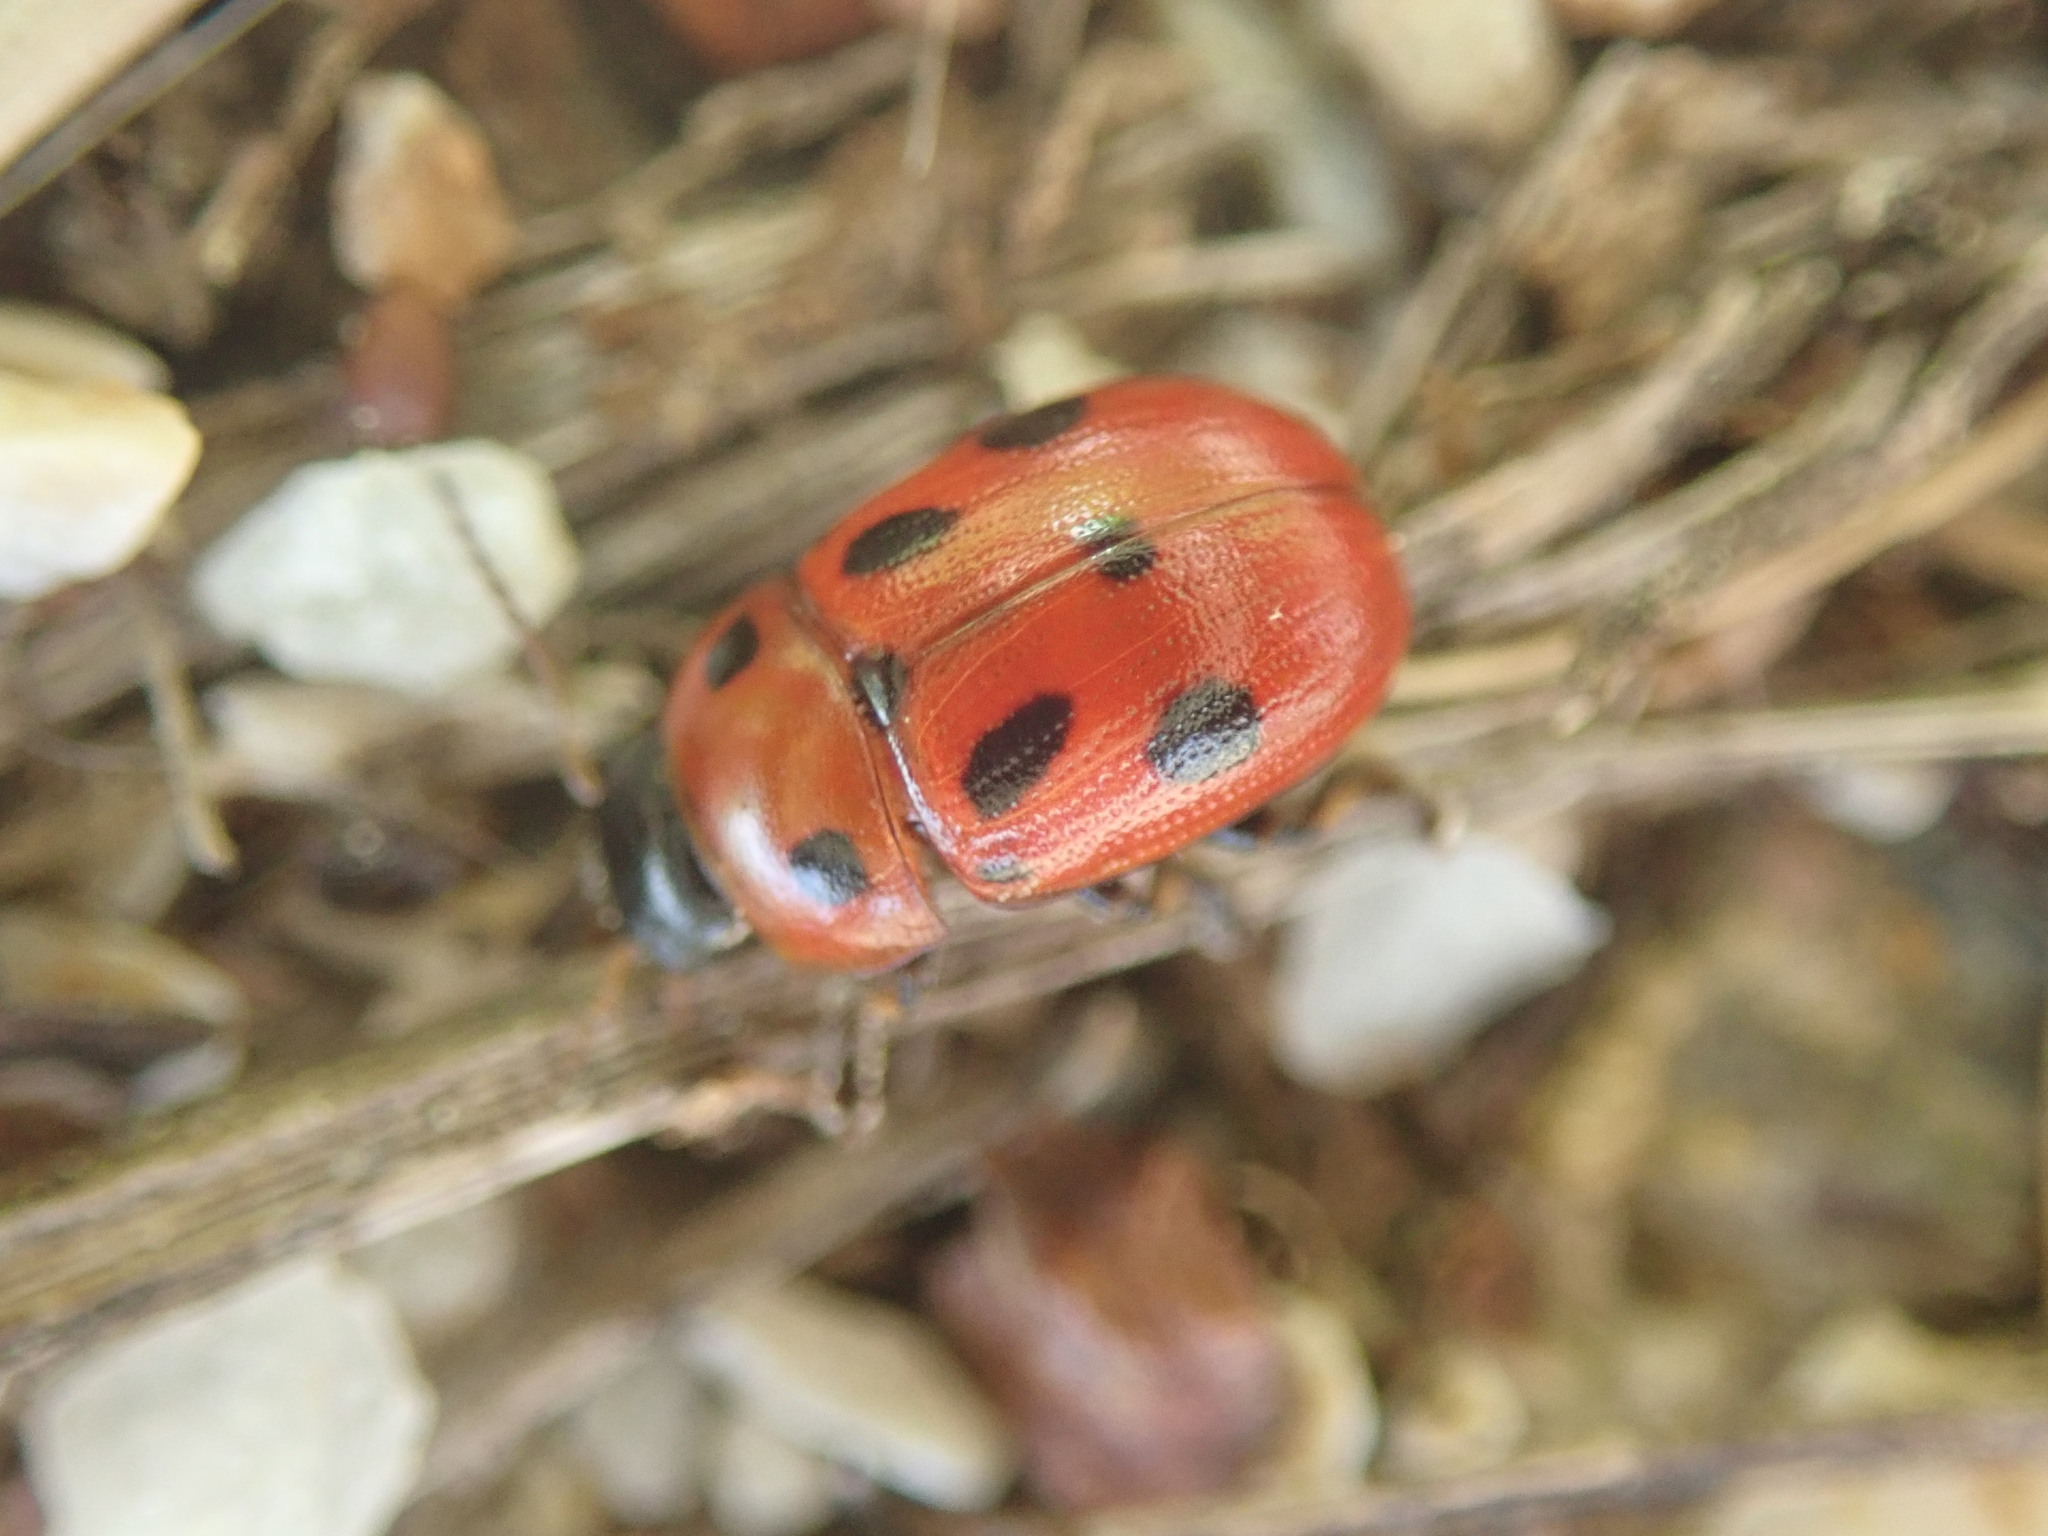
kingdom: Animalia
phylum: Arthropoda
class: Insecta
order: Coleoptera
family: Chrysomelidae
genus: Gonioctena
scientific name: Gonioctena fornicata
